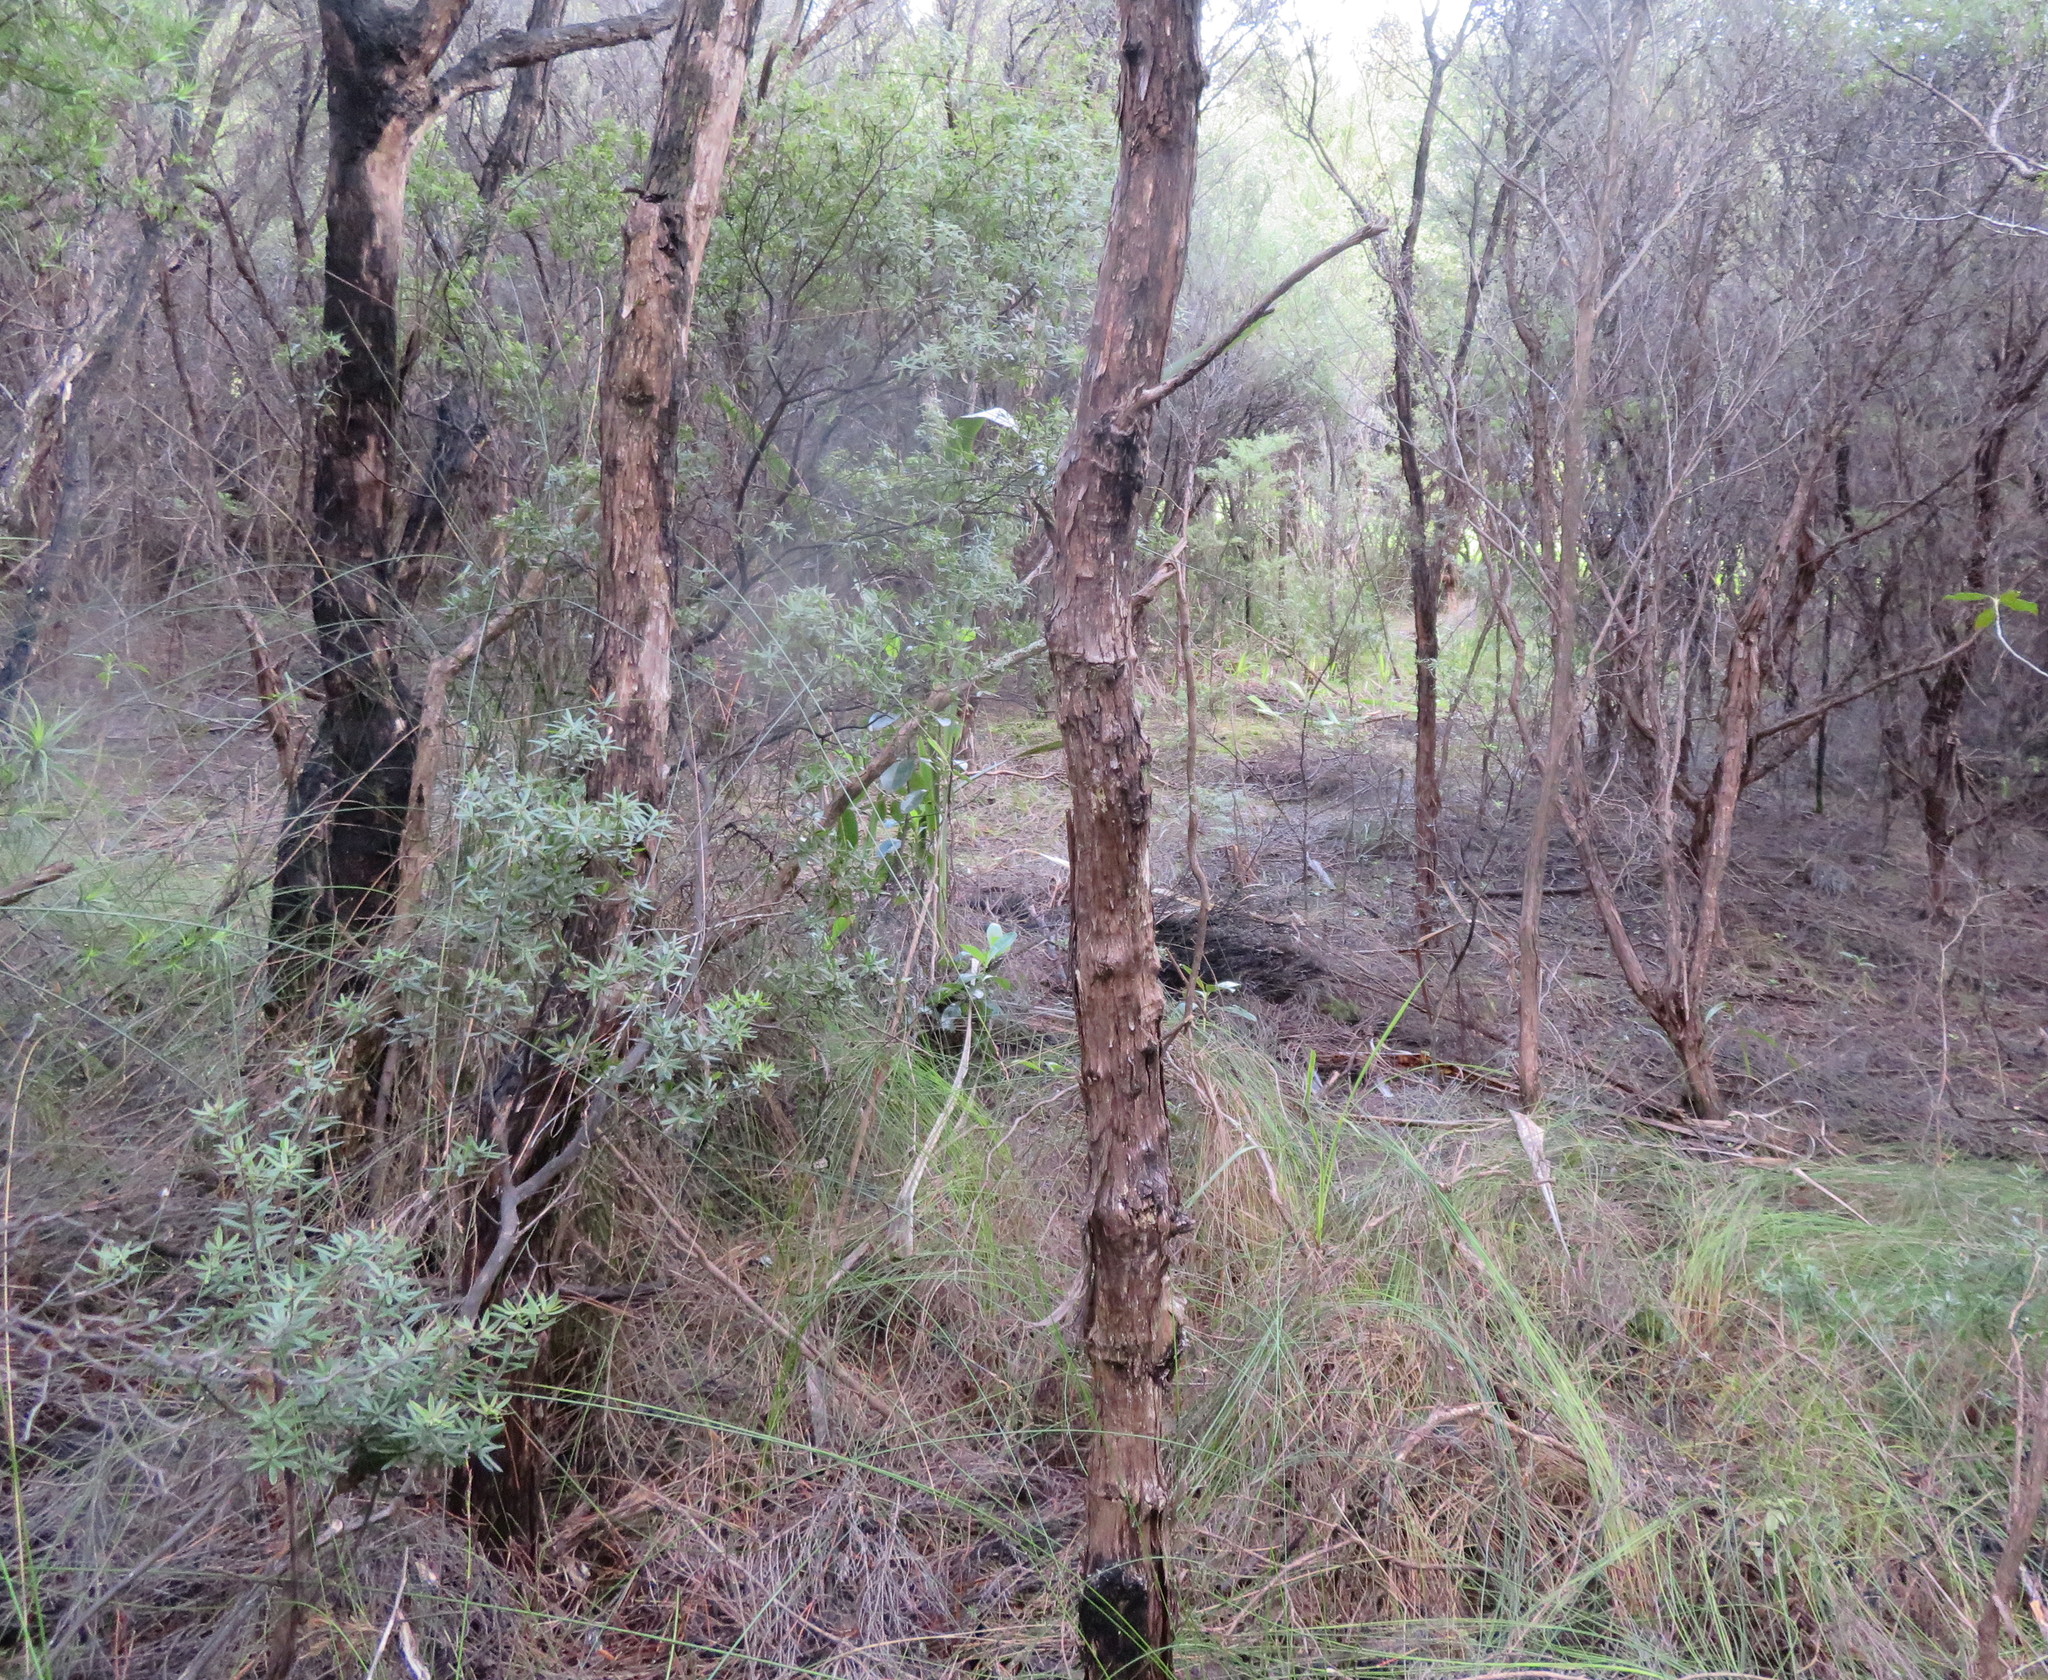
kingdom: Plantae
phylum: Tracheophyta
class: Magnoliopsida
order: Ericales
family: Ericaceae
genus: Leucopogon
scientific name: Leucopogon fasciculatus
